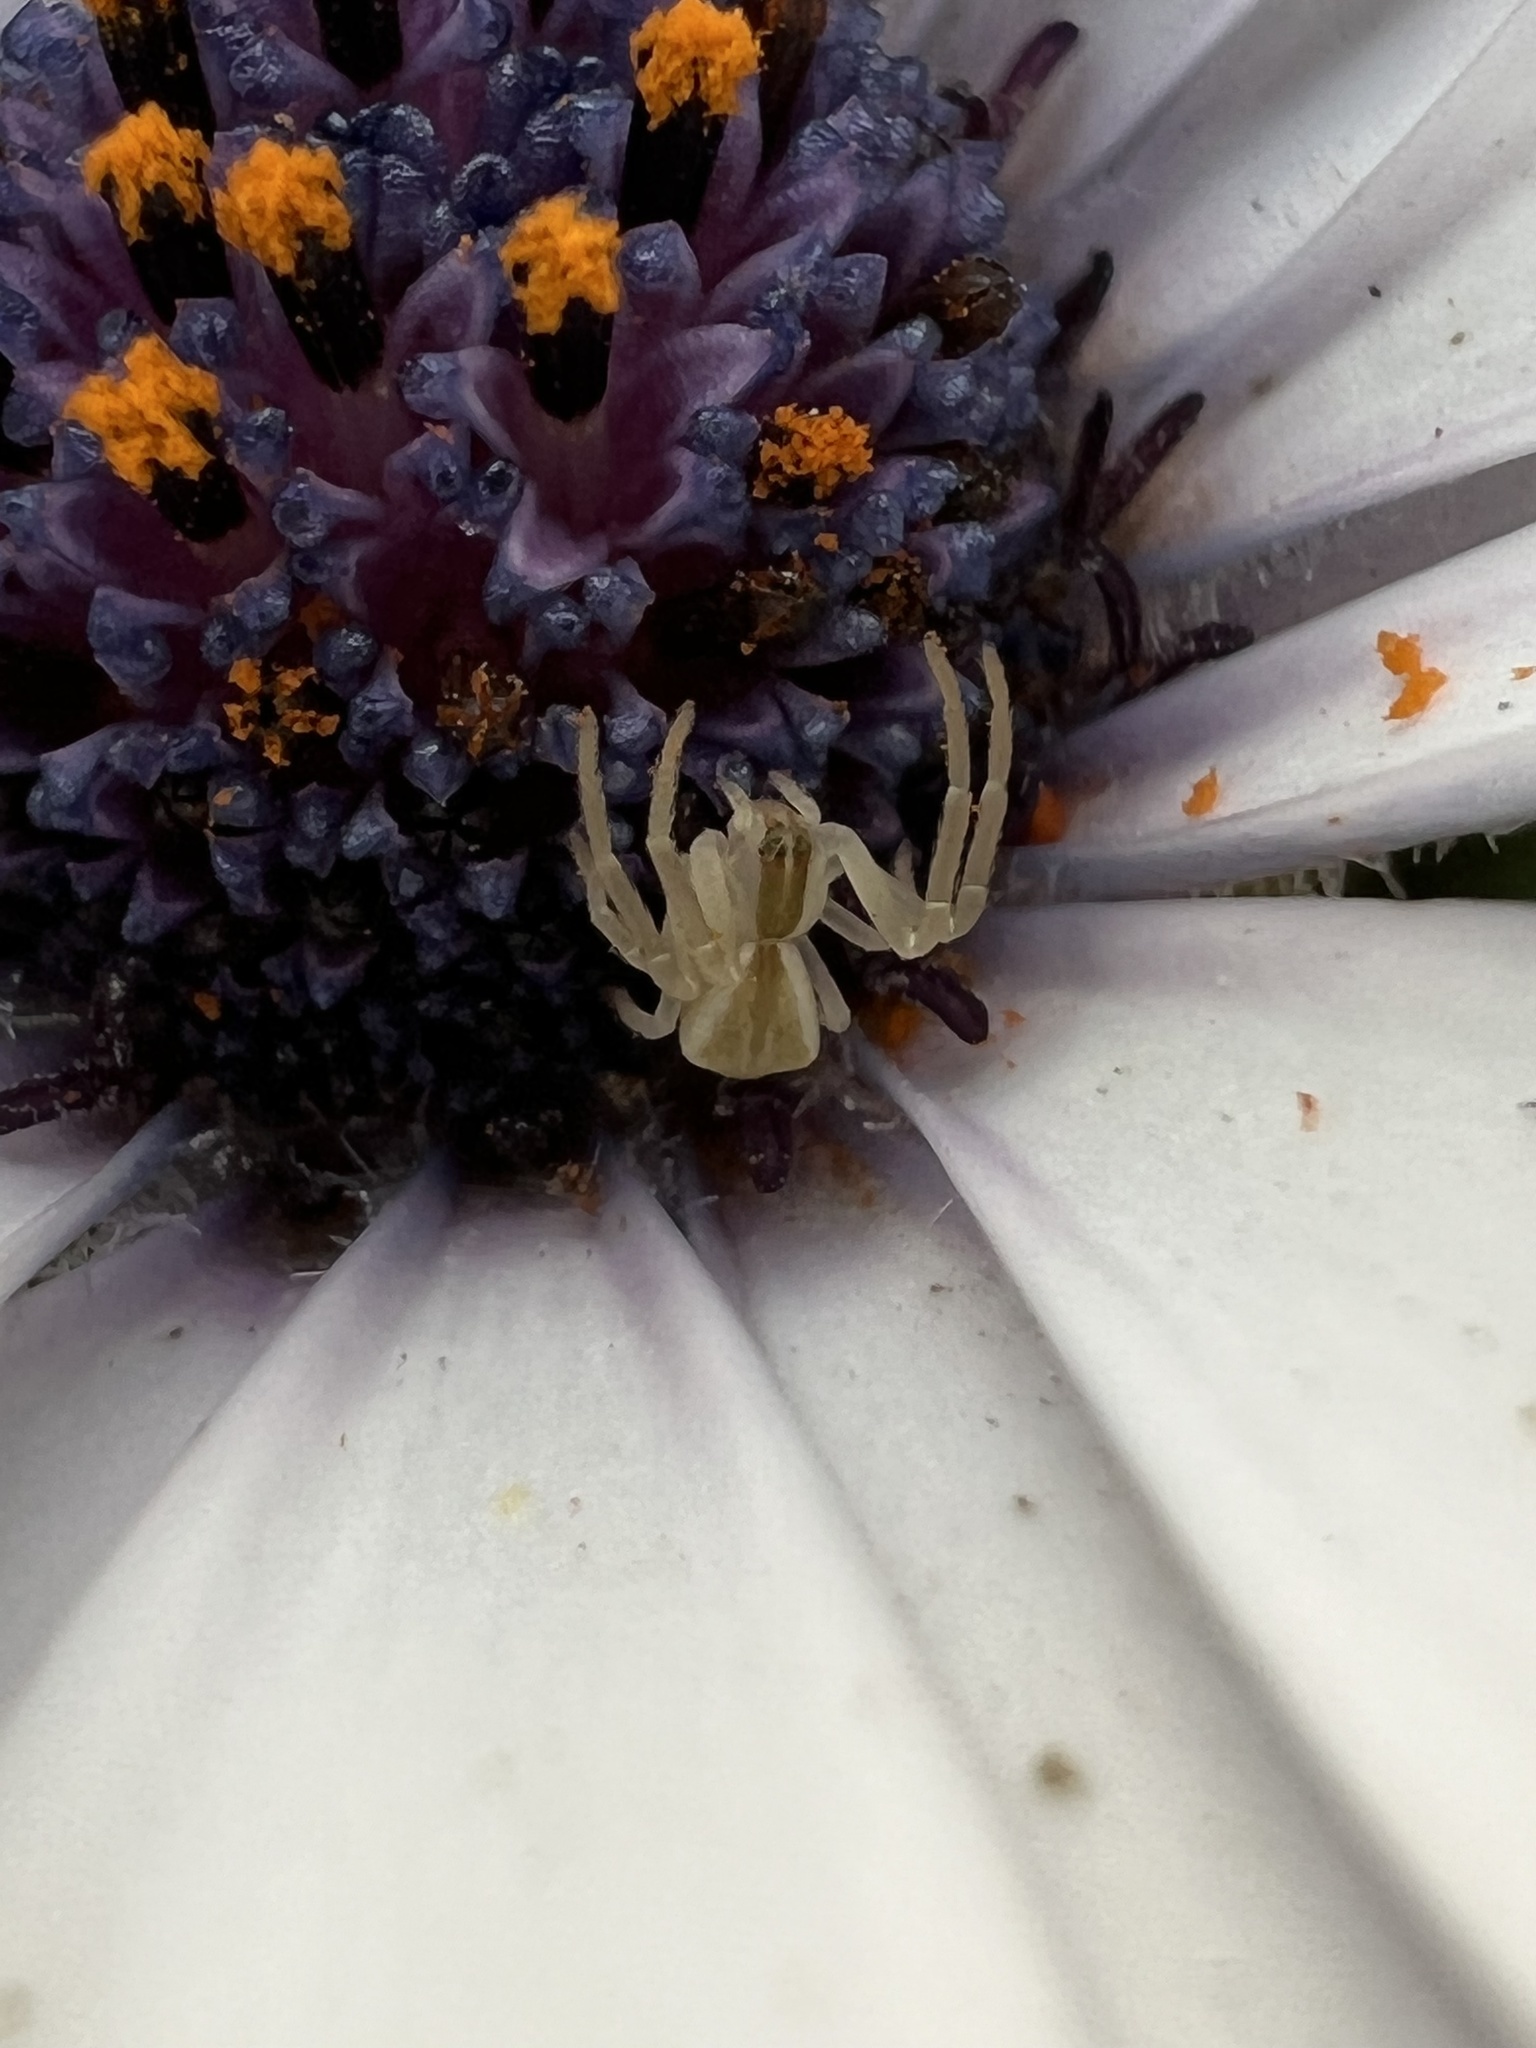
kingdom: Animalia
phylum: Arthropoda
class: Arachnida
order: Araneae
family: Thomisidae
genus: Sidymella
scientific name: Sidymella trapezia
